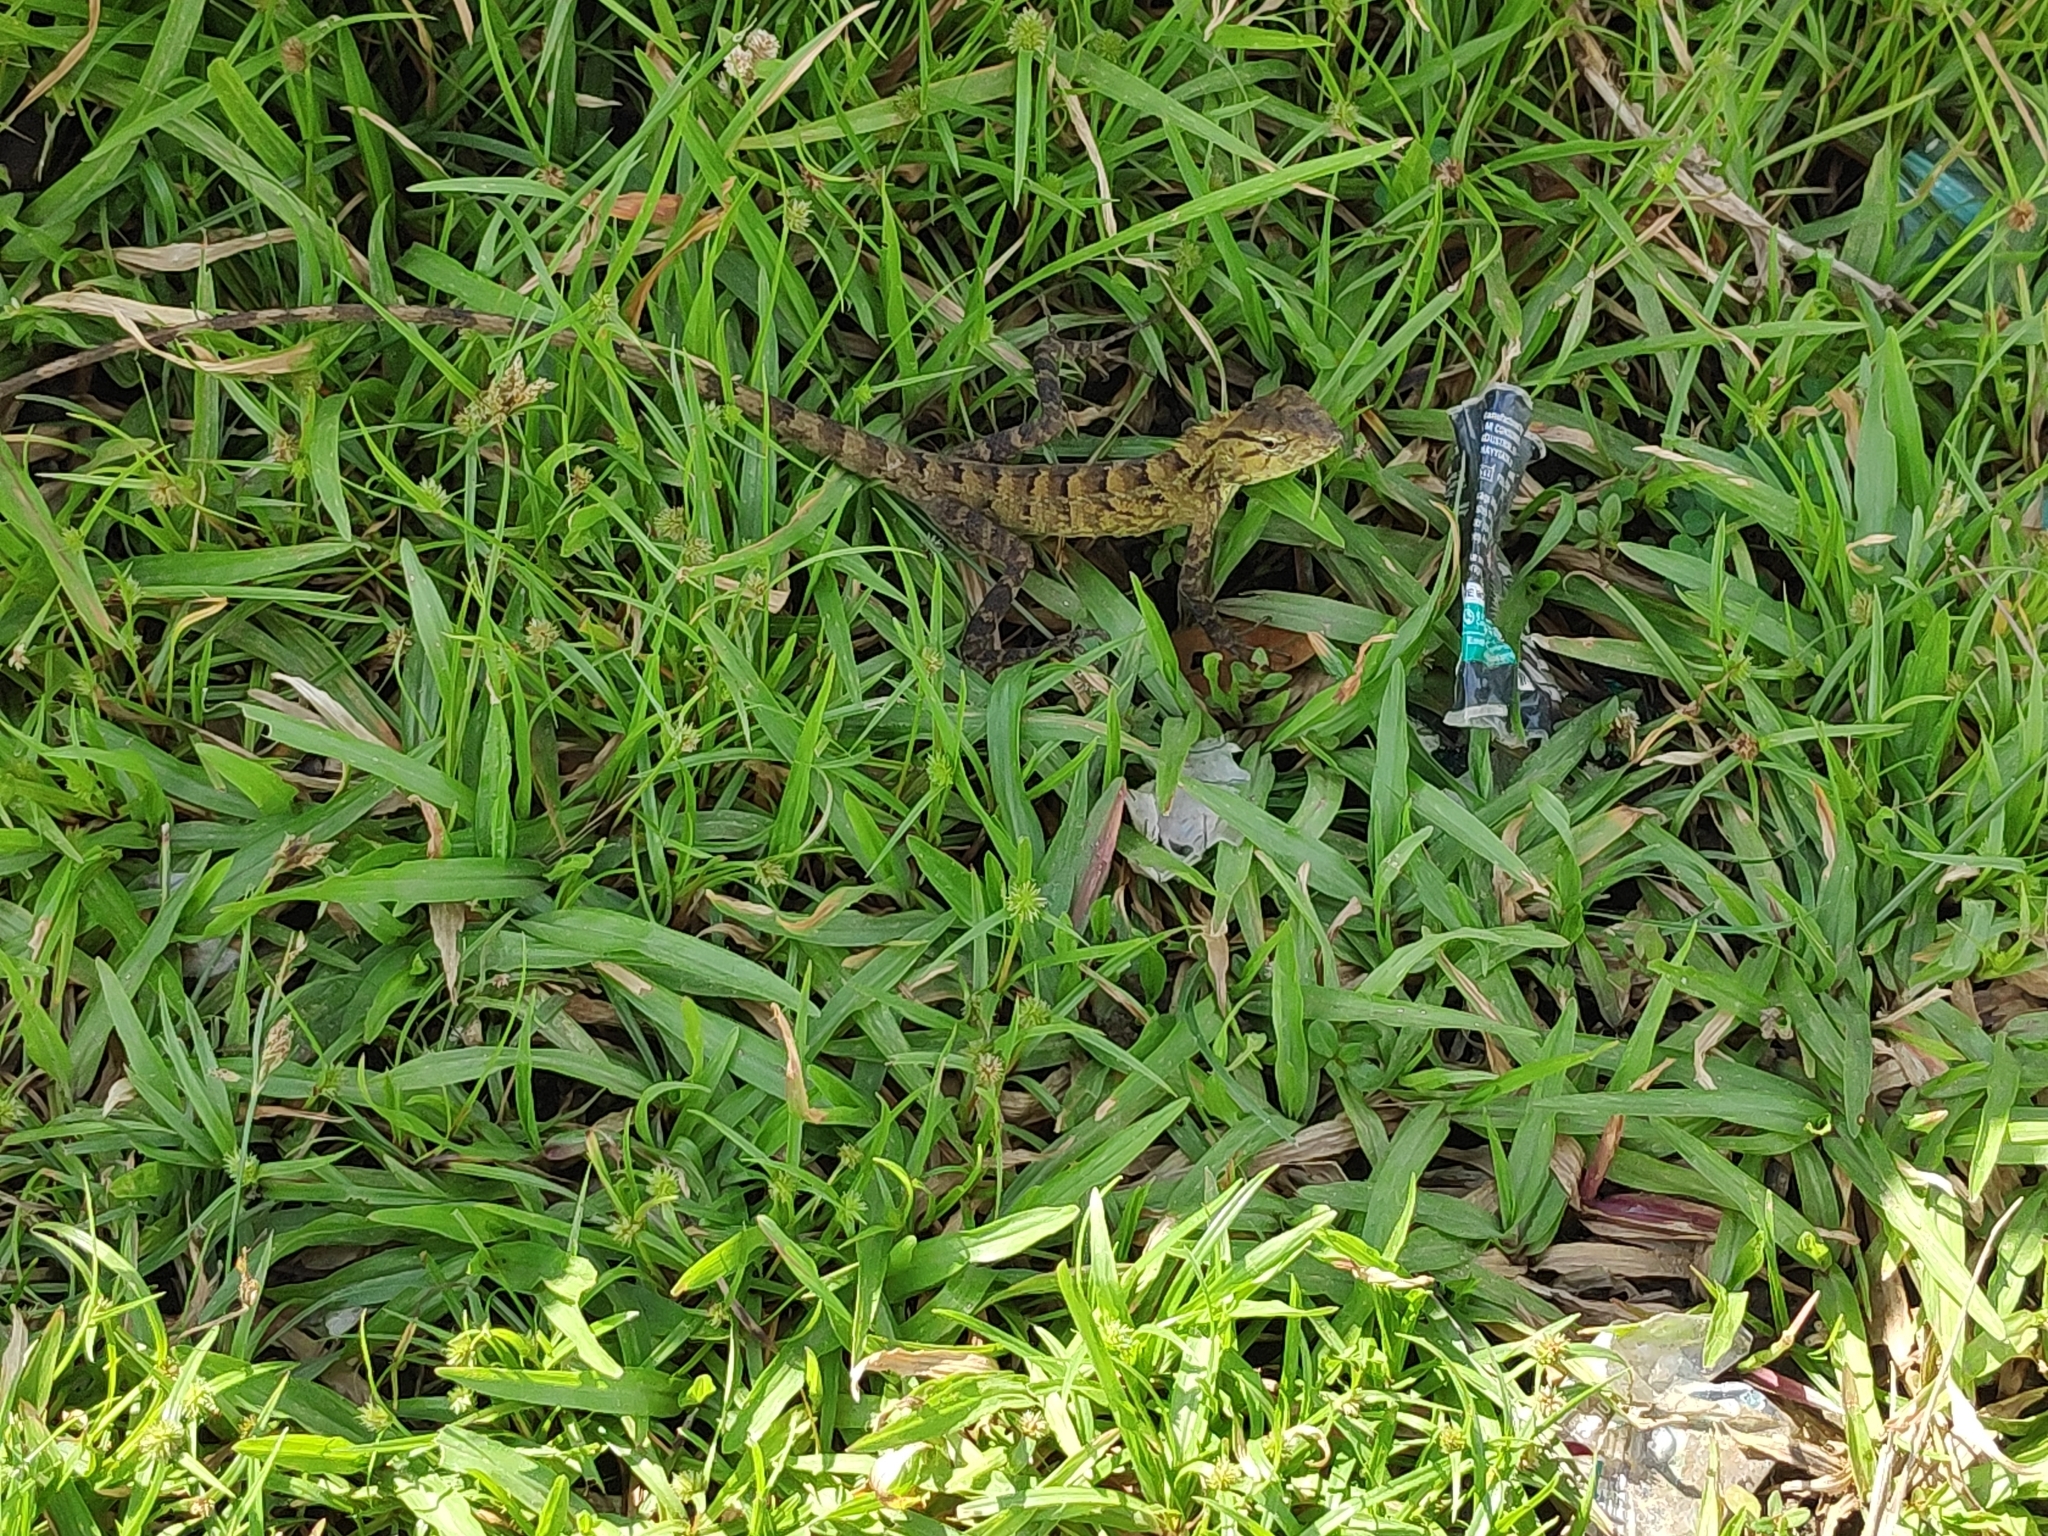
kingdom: Animalia
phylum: Chordata
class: Squamata
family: Agamidae
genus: Calotes
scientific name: Calotes versicolor
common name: Oriental garden lizard
